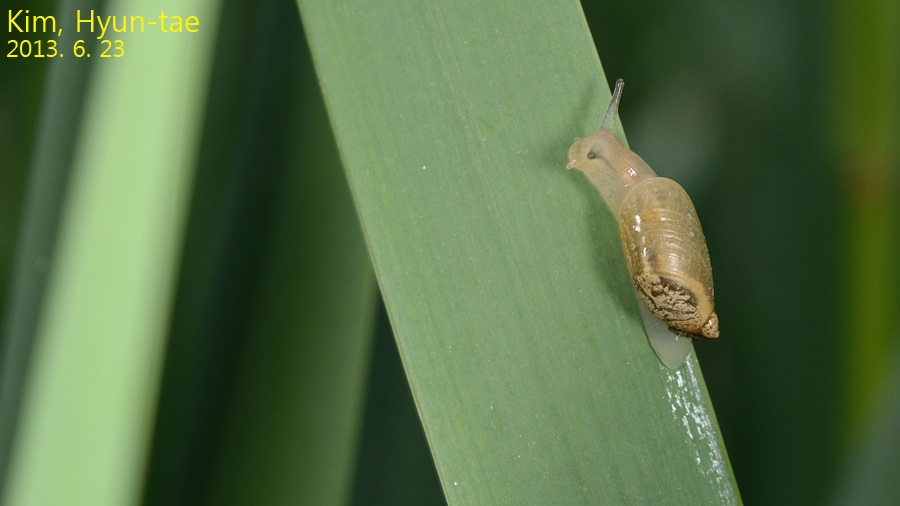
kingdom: Animalia
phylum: Mollusca
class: Gastropoda
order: Stylommatophora
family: Succineidae
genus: Oxyloma
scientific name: Oxyloma hirasei
